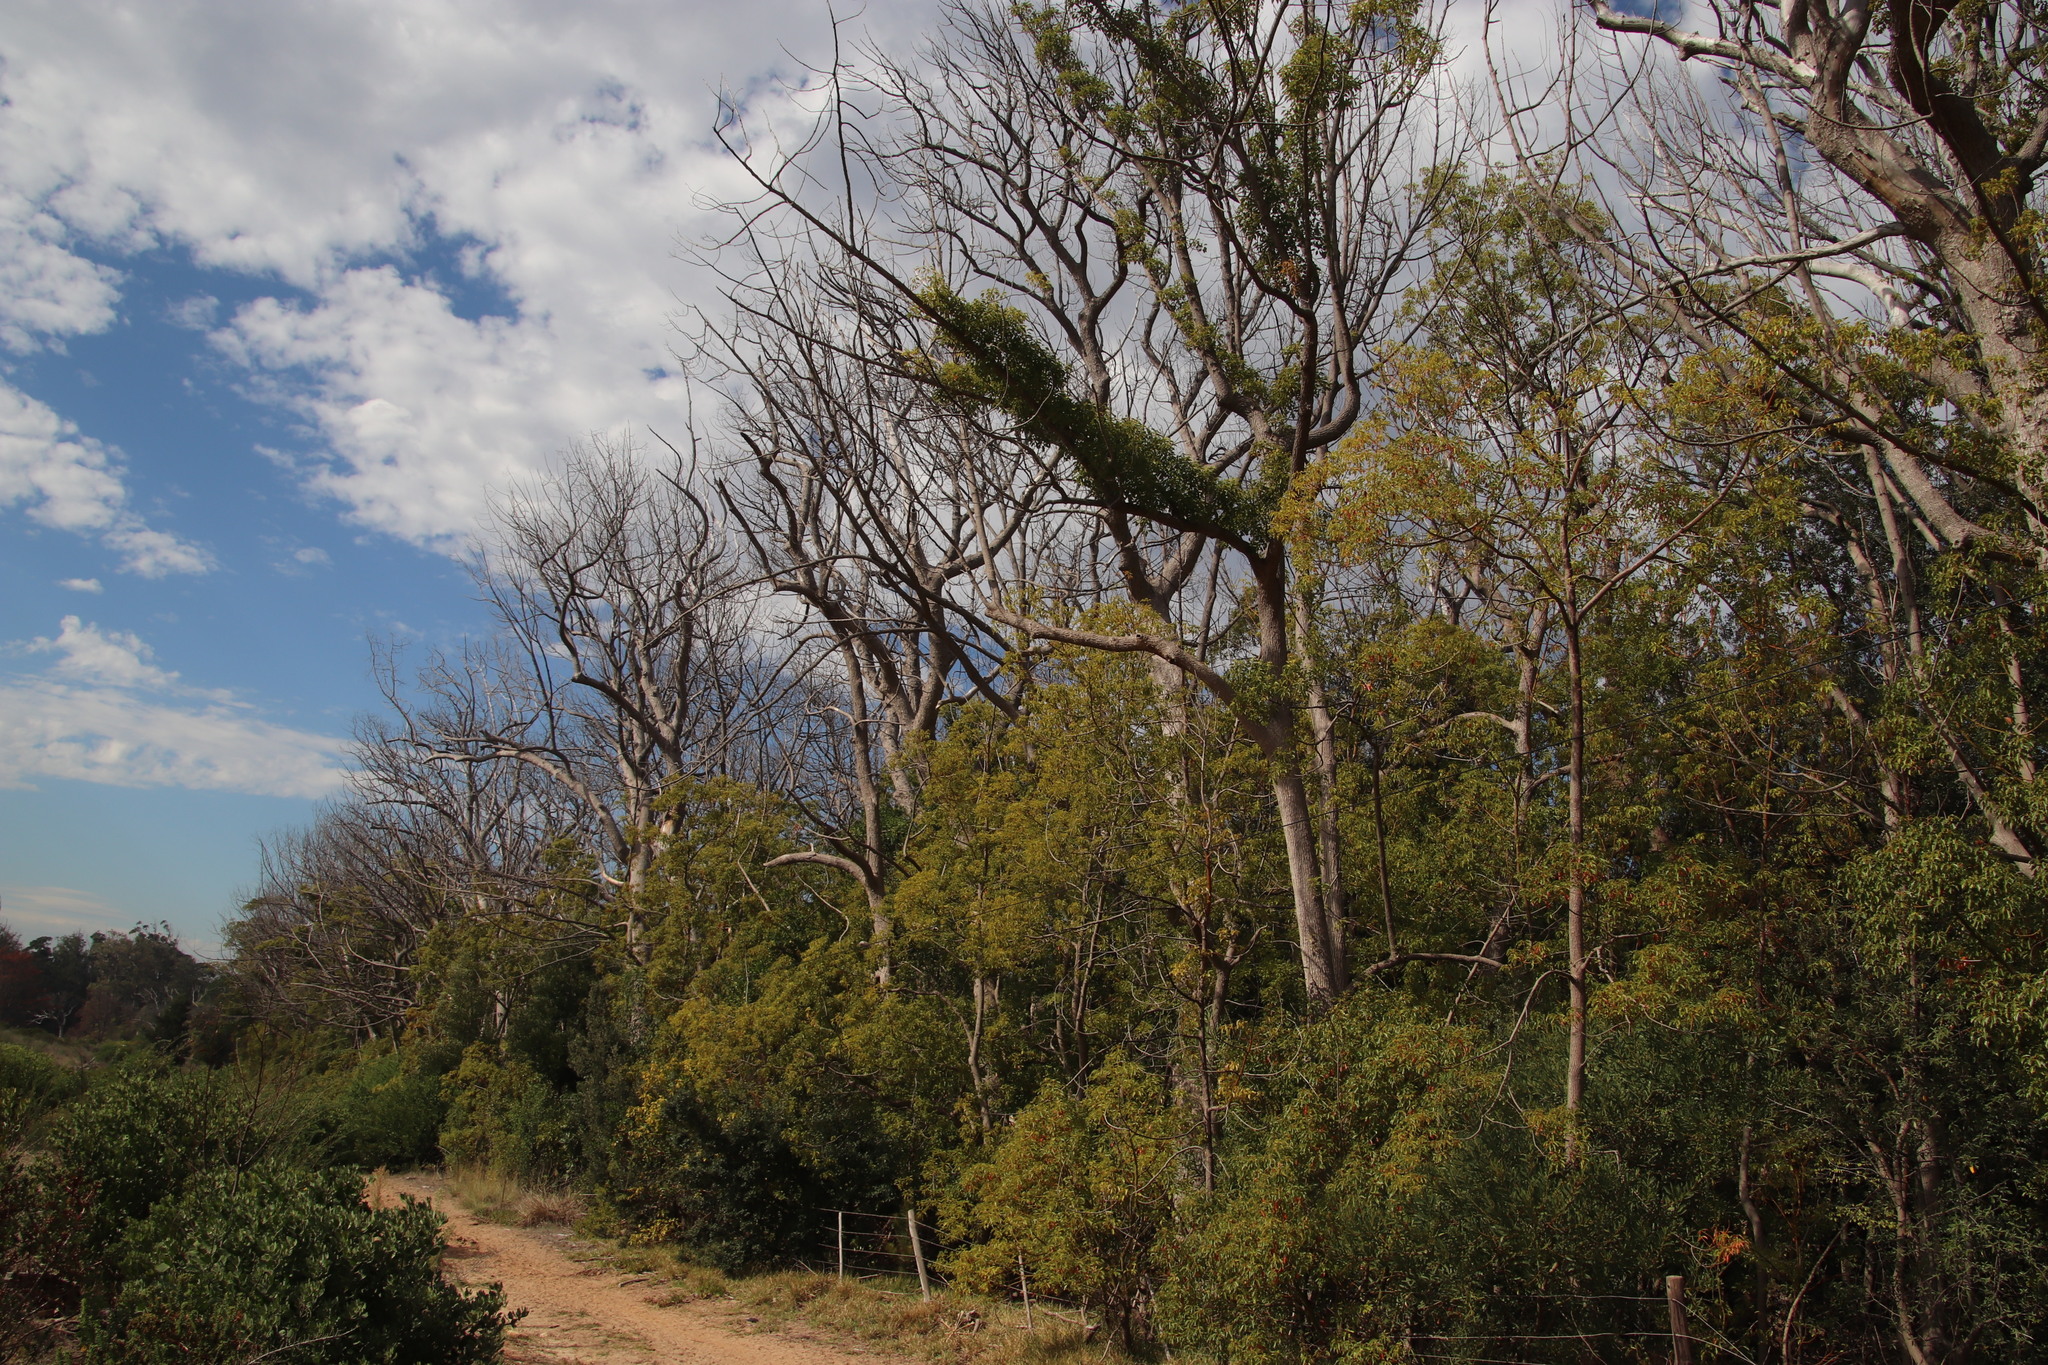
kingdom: Plantae
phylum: Tracheophyta
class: Magnoliopsida
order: Laurales
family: Lauraceae
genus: Cinnamomum
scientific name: Cinnamomum camphora
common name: Camphortree
